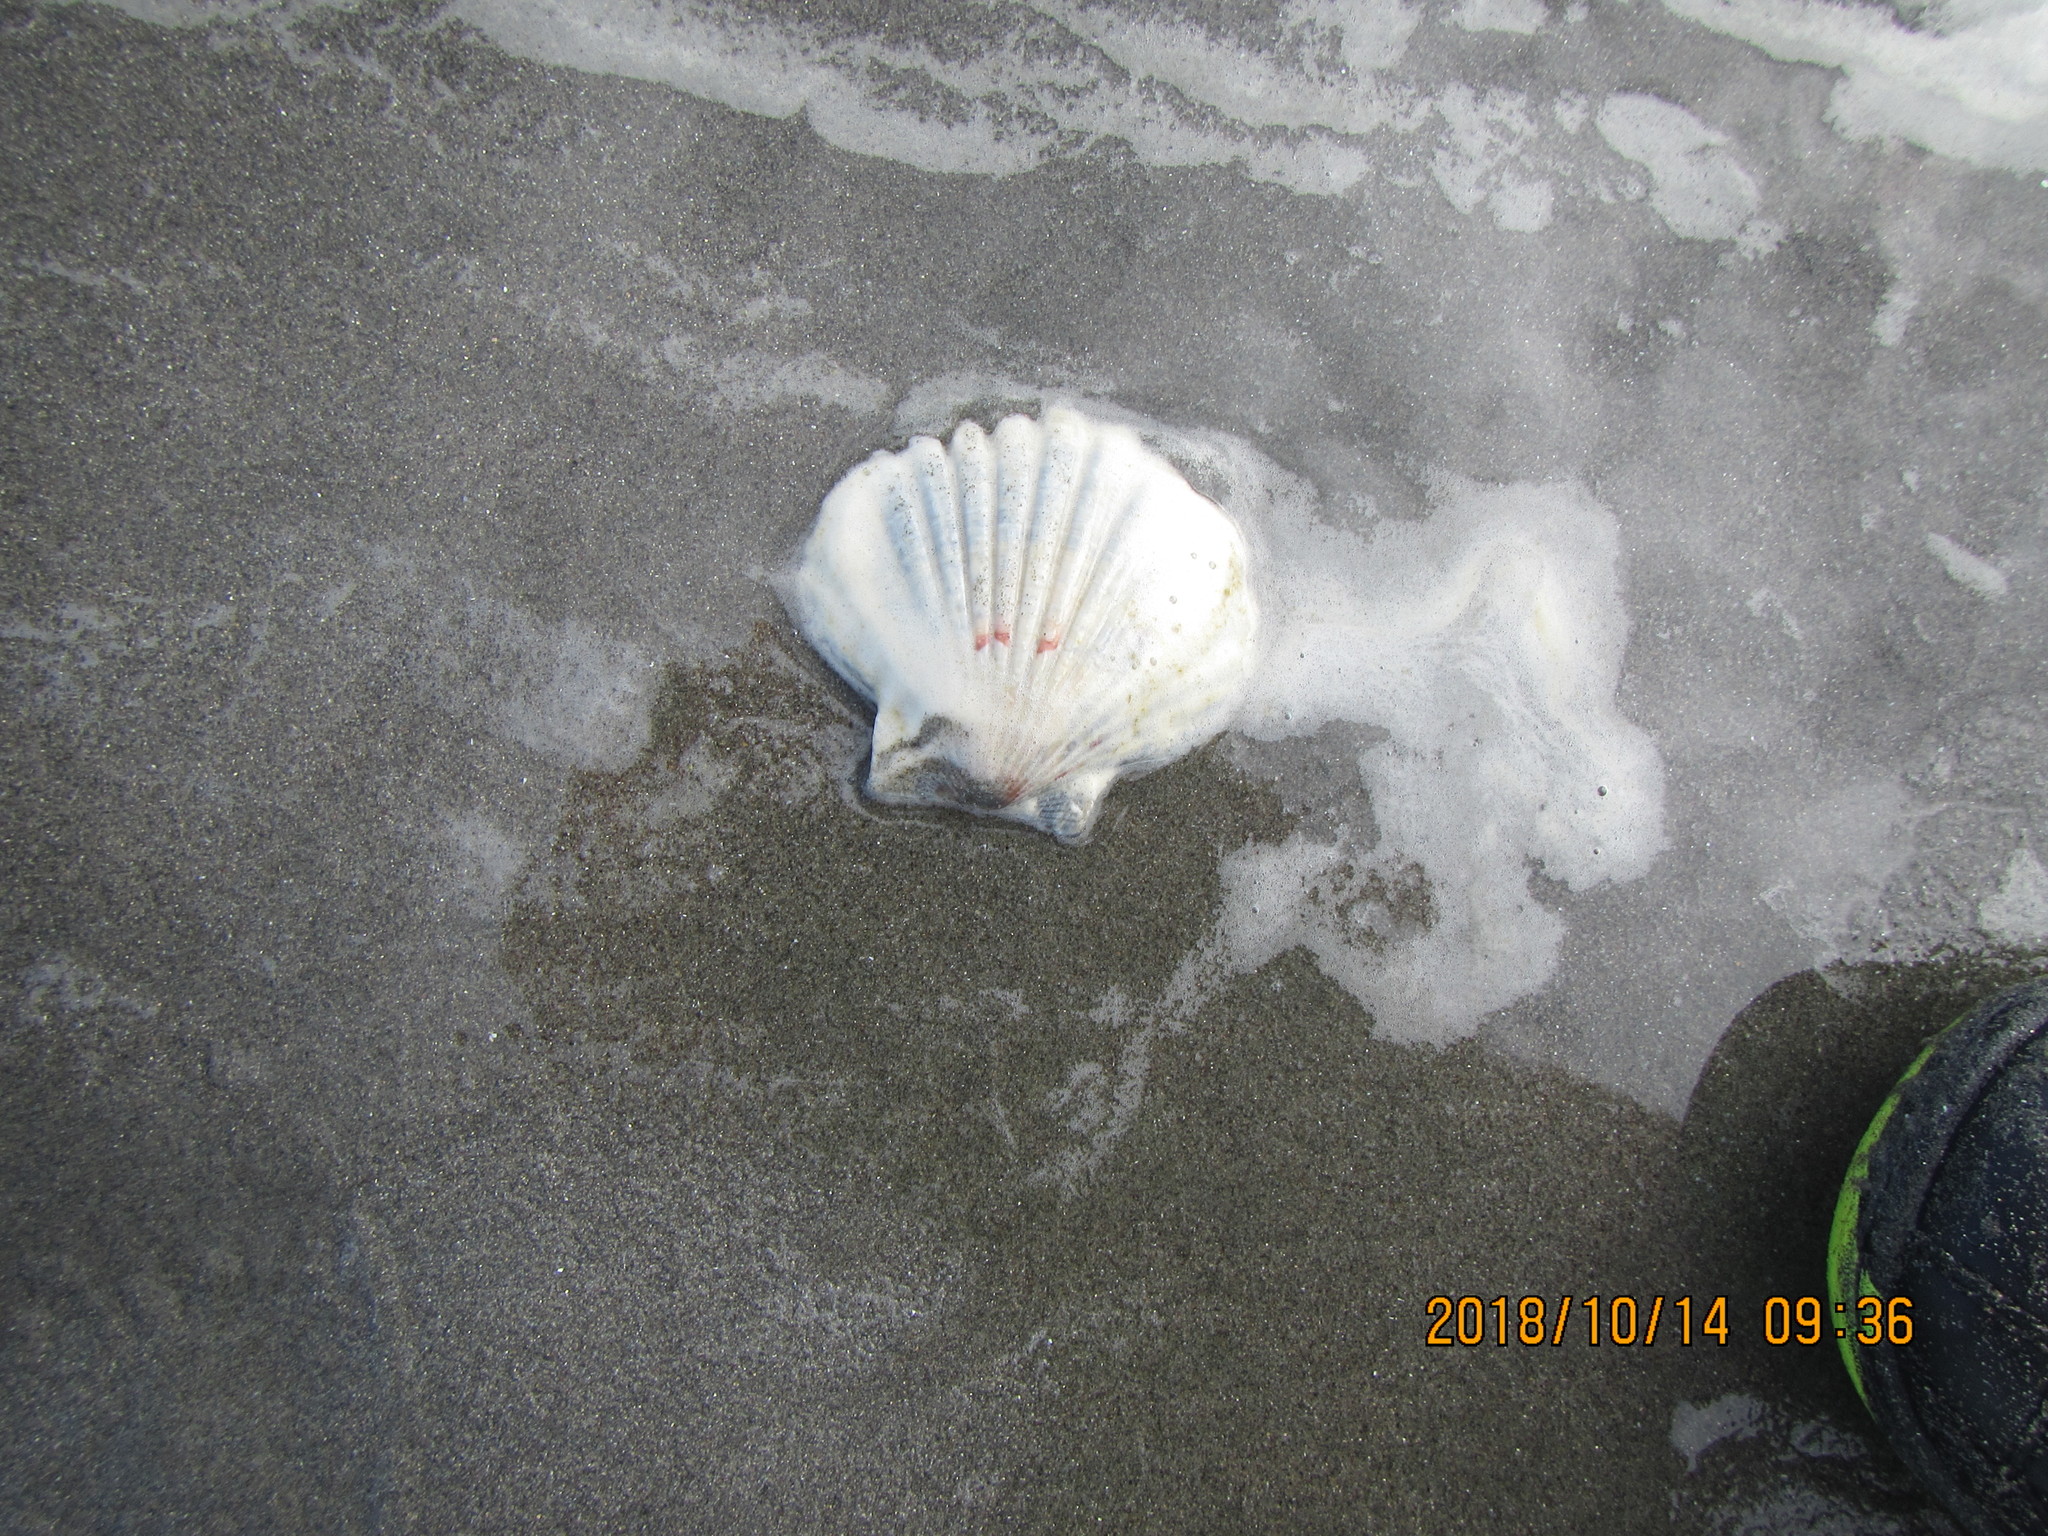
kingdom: Animalia
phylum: Mollusca
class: Bivalvia
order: Pectinida
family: Pectinidae
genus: Pecten
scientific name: Pecten novaezelandiae
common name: New zealand scallop
